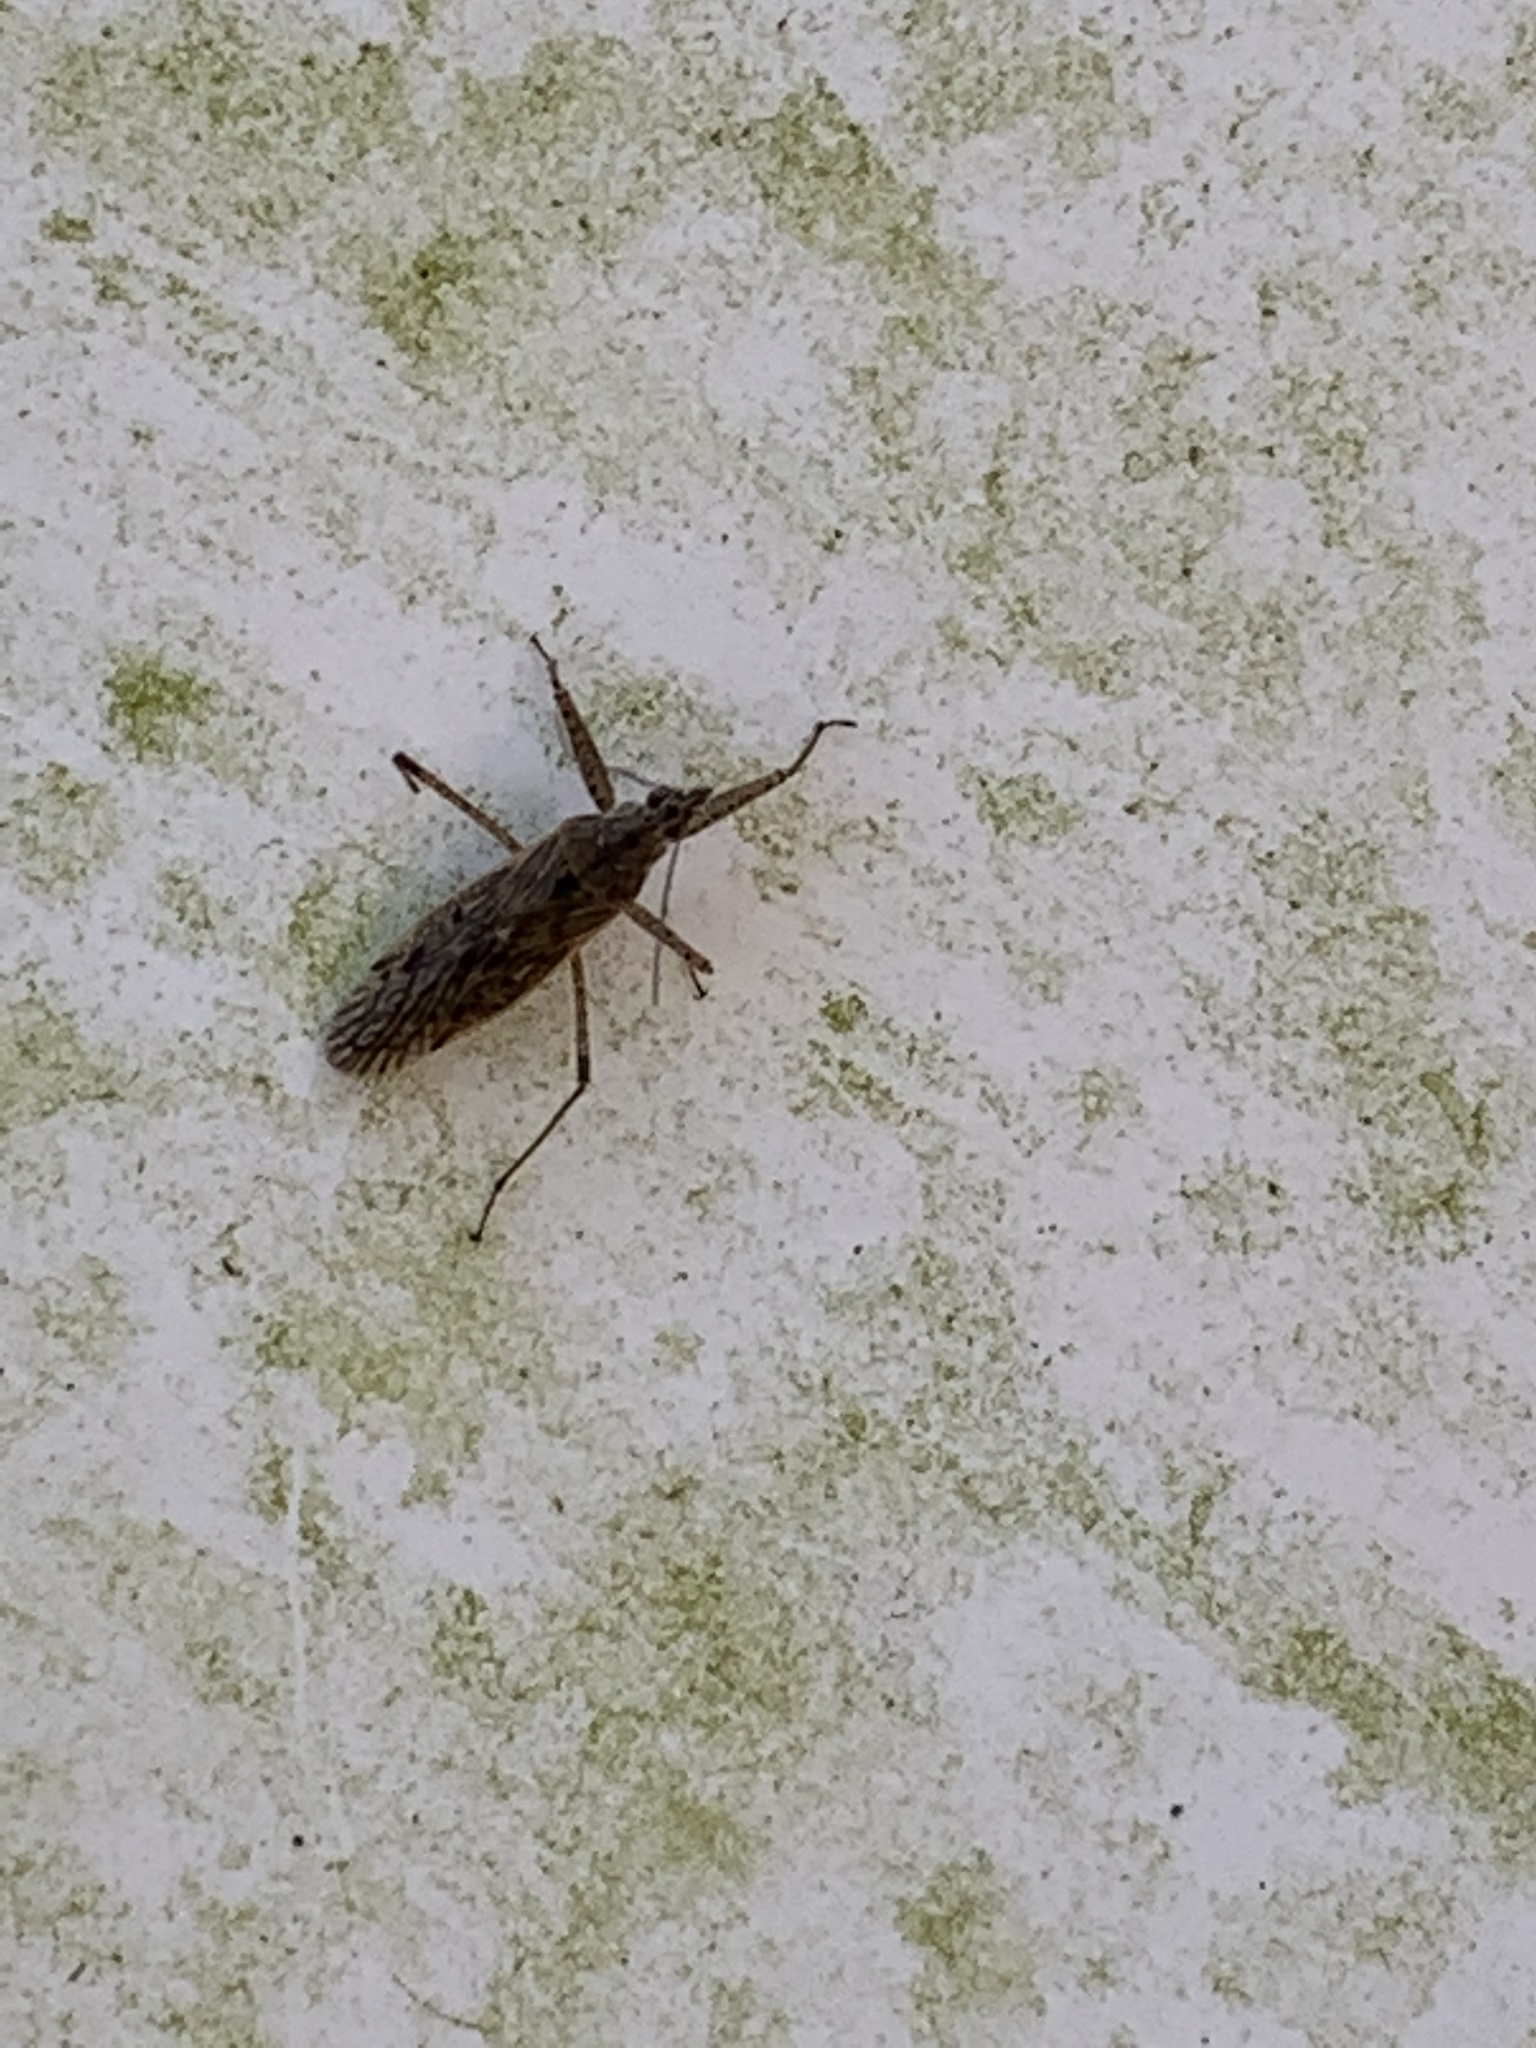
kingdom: Animalia
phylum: Arthropoda
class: Insecta
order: Hemiptera
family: Nabidae
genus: Nabis
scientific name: Nabis americoferus
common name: Common damsel bug
